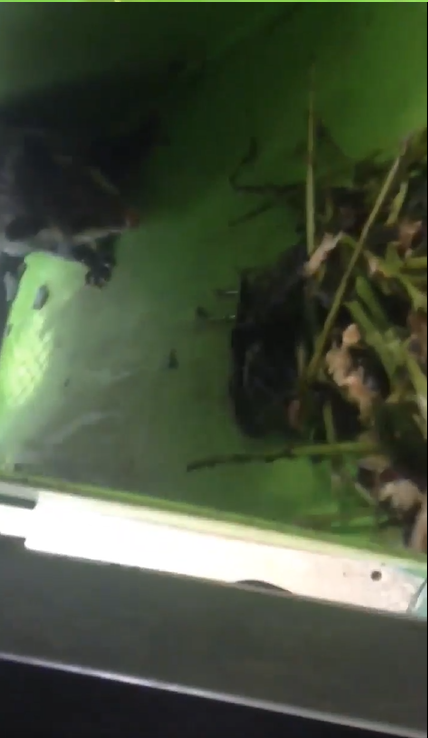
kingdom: Animalia
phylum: Chordata
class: Mammalia
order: Didelphimorphia
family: Didelphidae
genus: Didelphis
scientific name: Didelphis virginiana
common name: Virginia opossum
